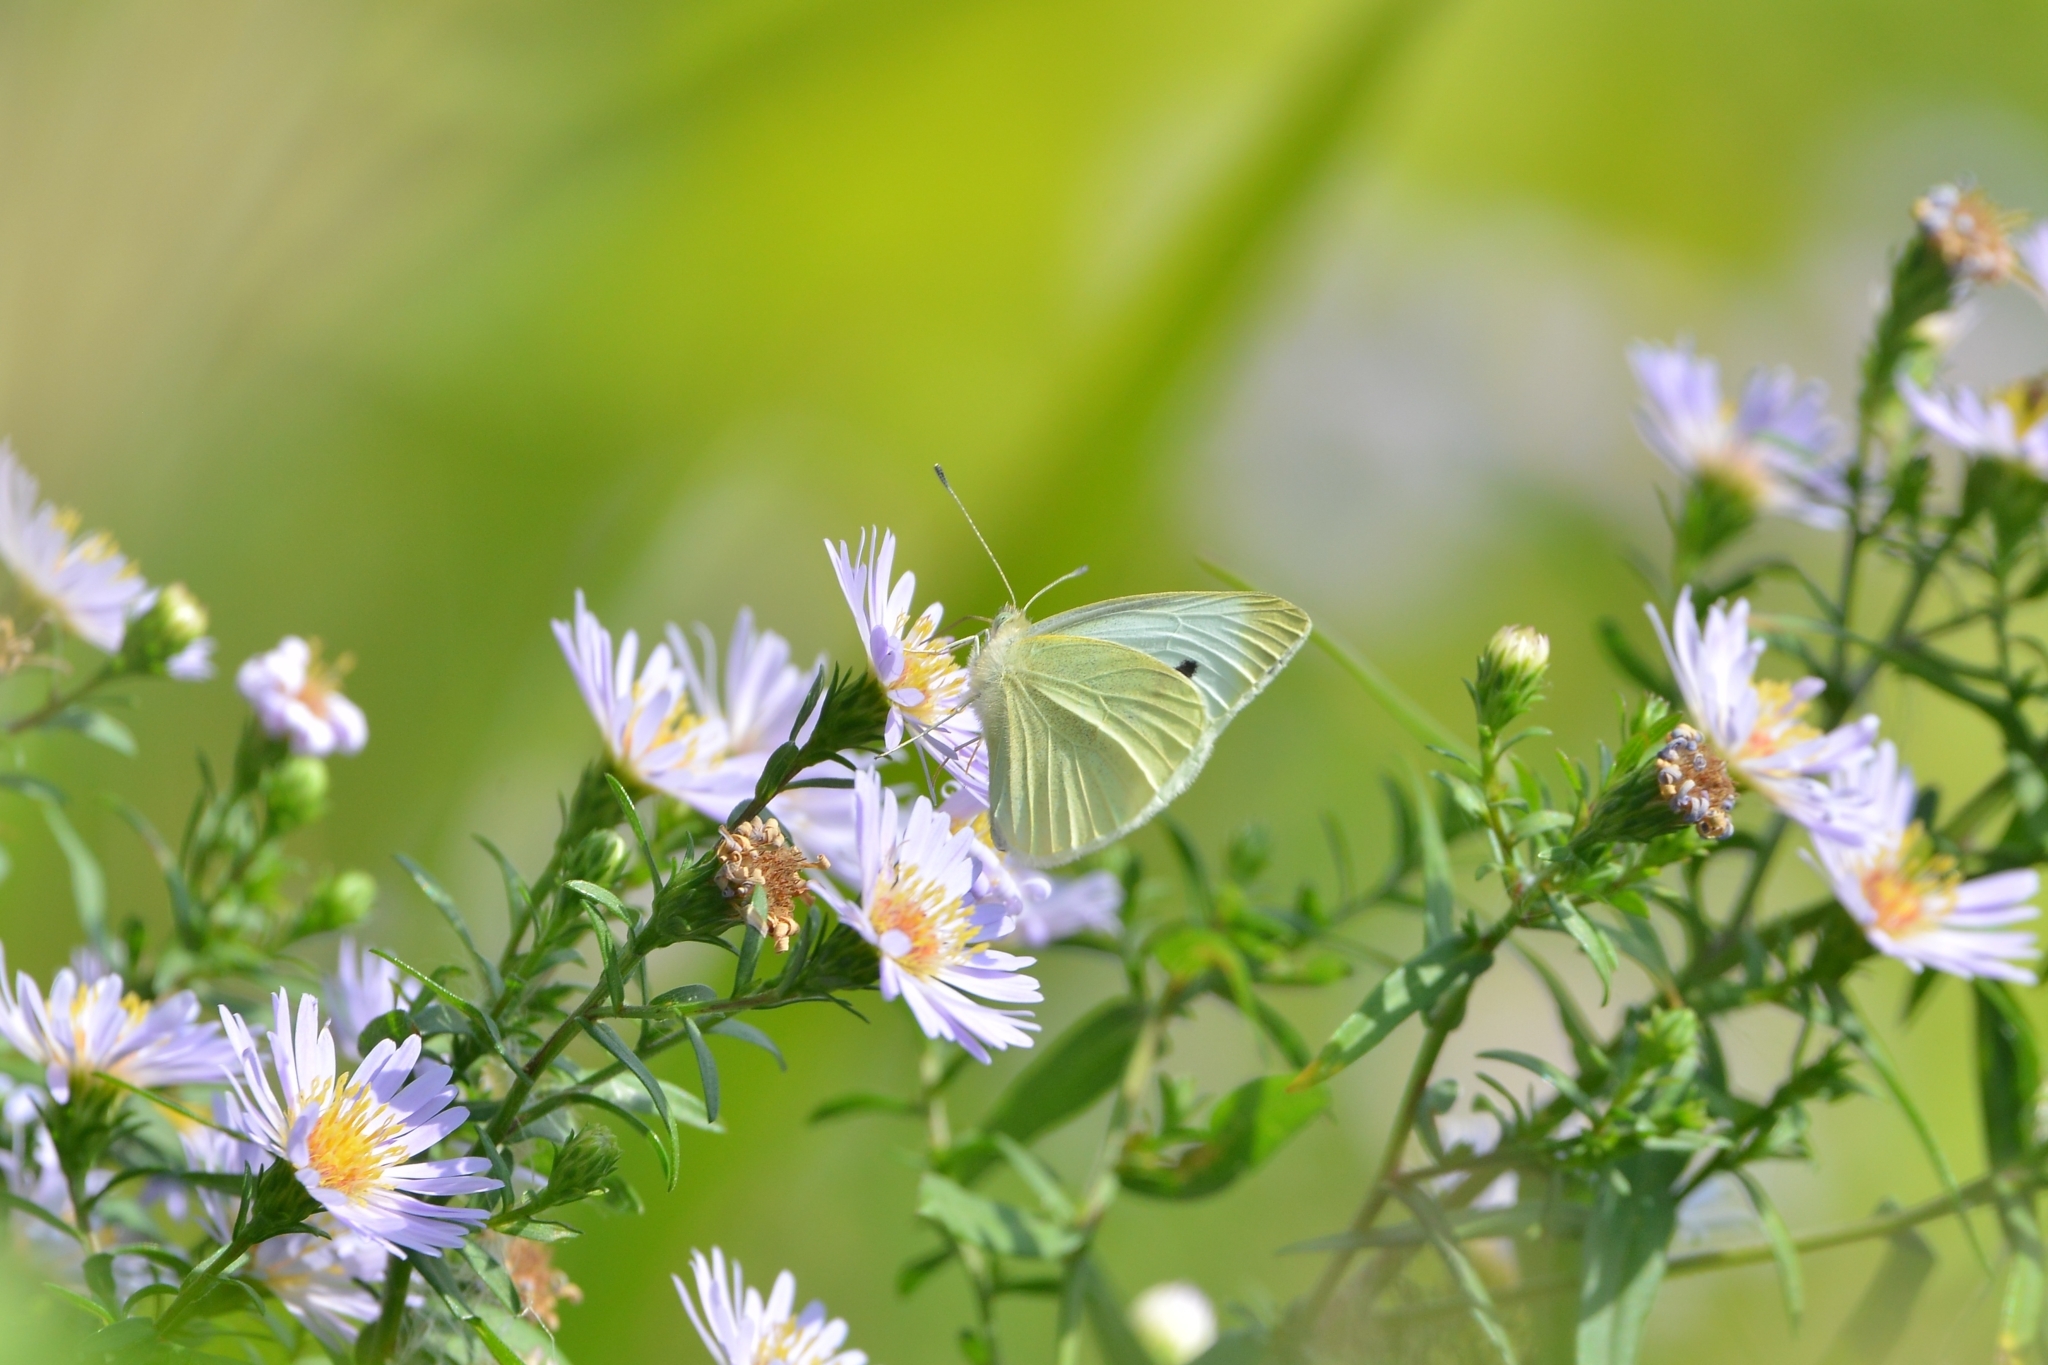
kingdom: Animalia
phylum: Arthropoda
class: Insecta
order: Lepidoptera
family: Pieridae
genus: Pieris
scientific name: Pieris rapae
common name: Small white
